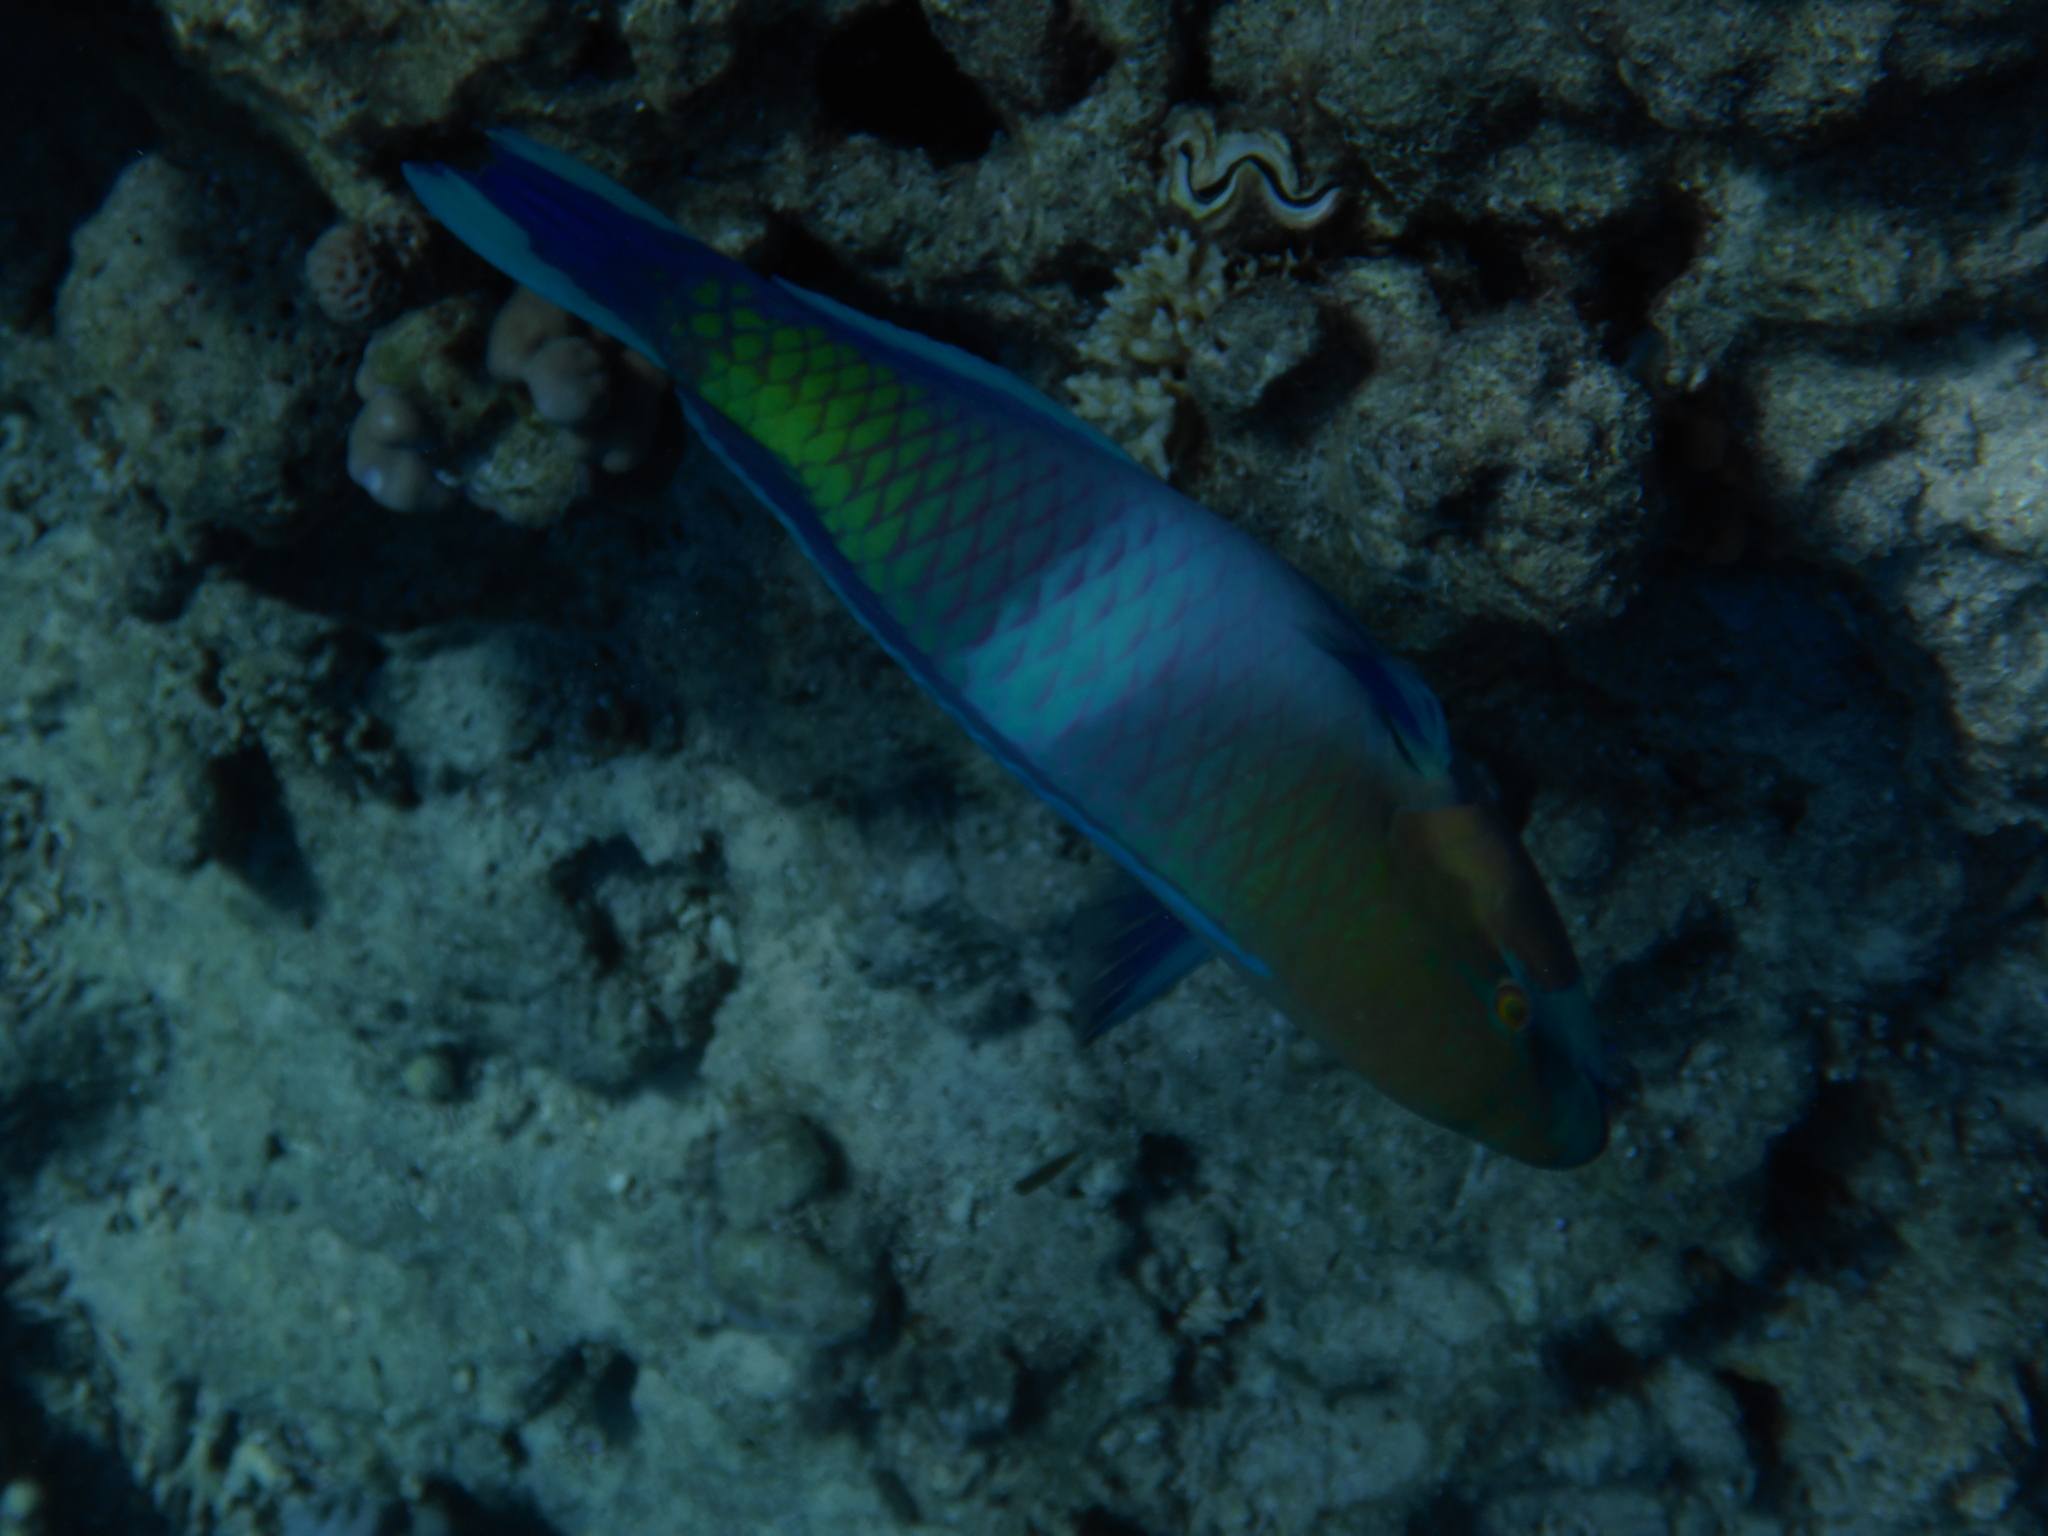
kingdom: Animalia
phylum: Chordata
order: Perciformes
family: Scaridae
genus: Scarus
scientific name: Scarus ferrugineus
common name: Rusty parrotfish
